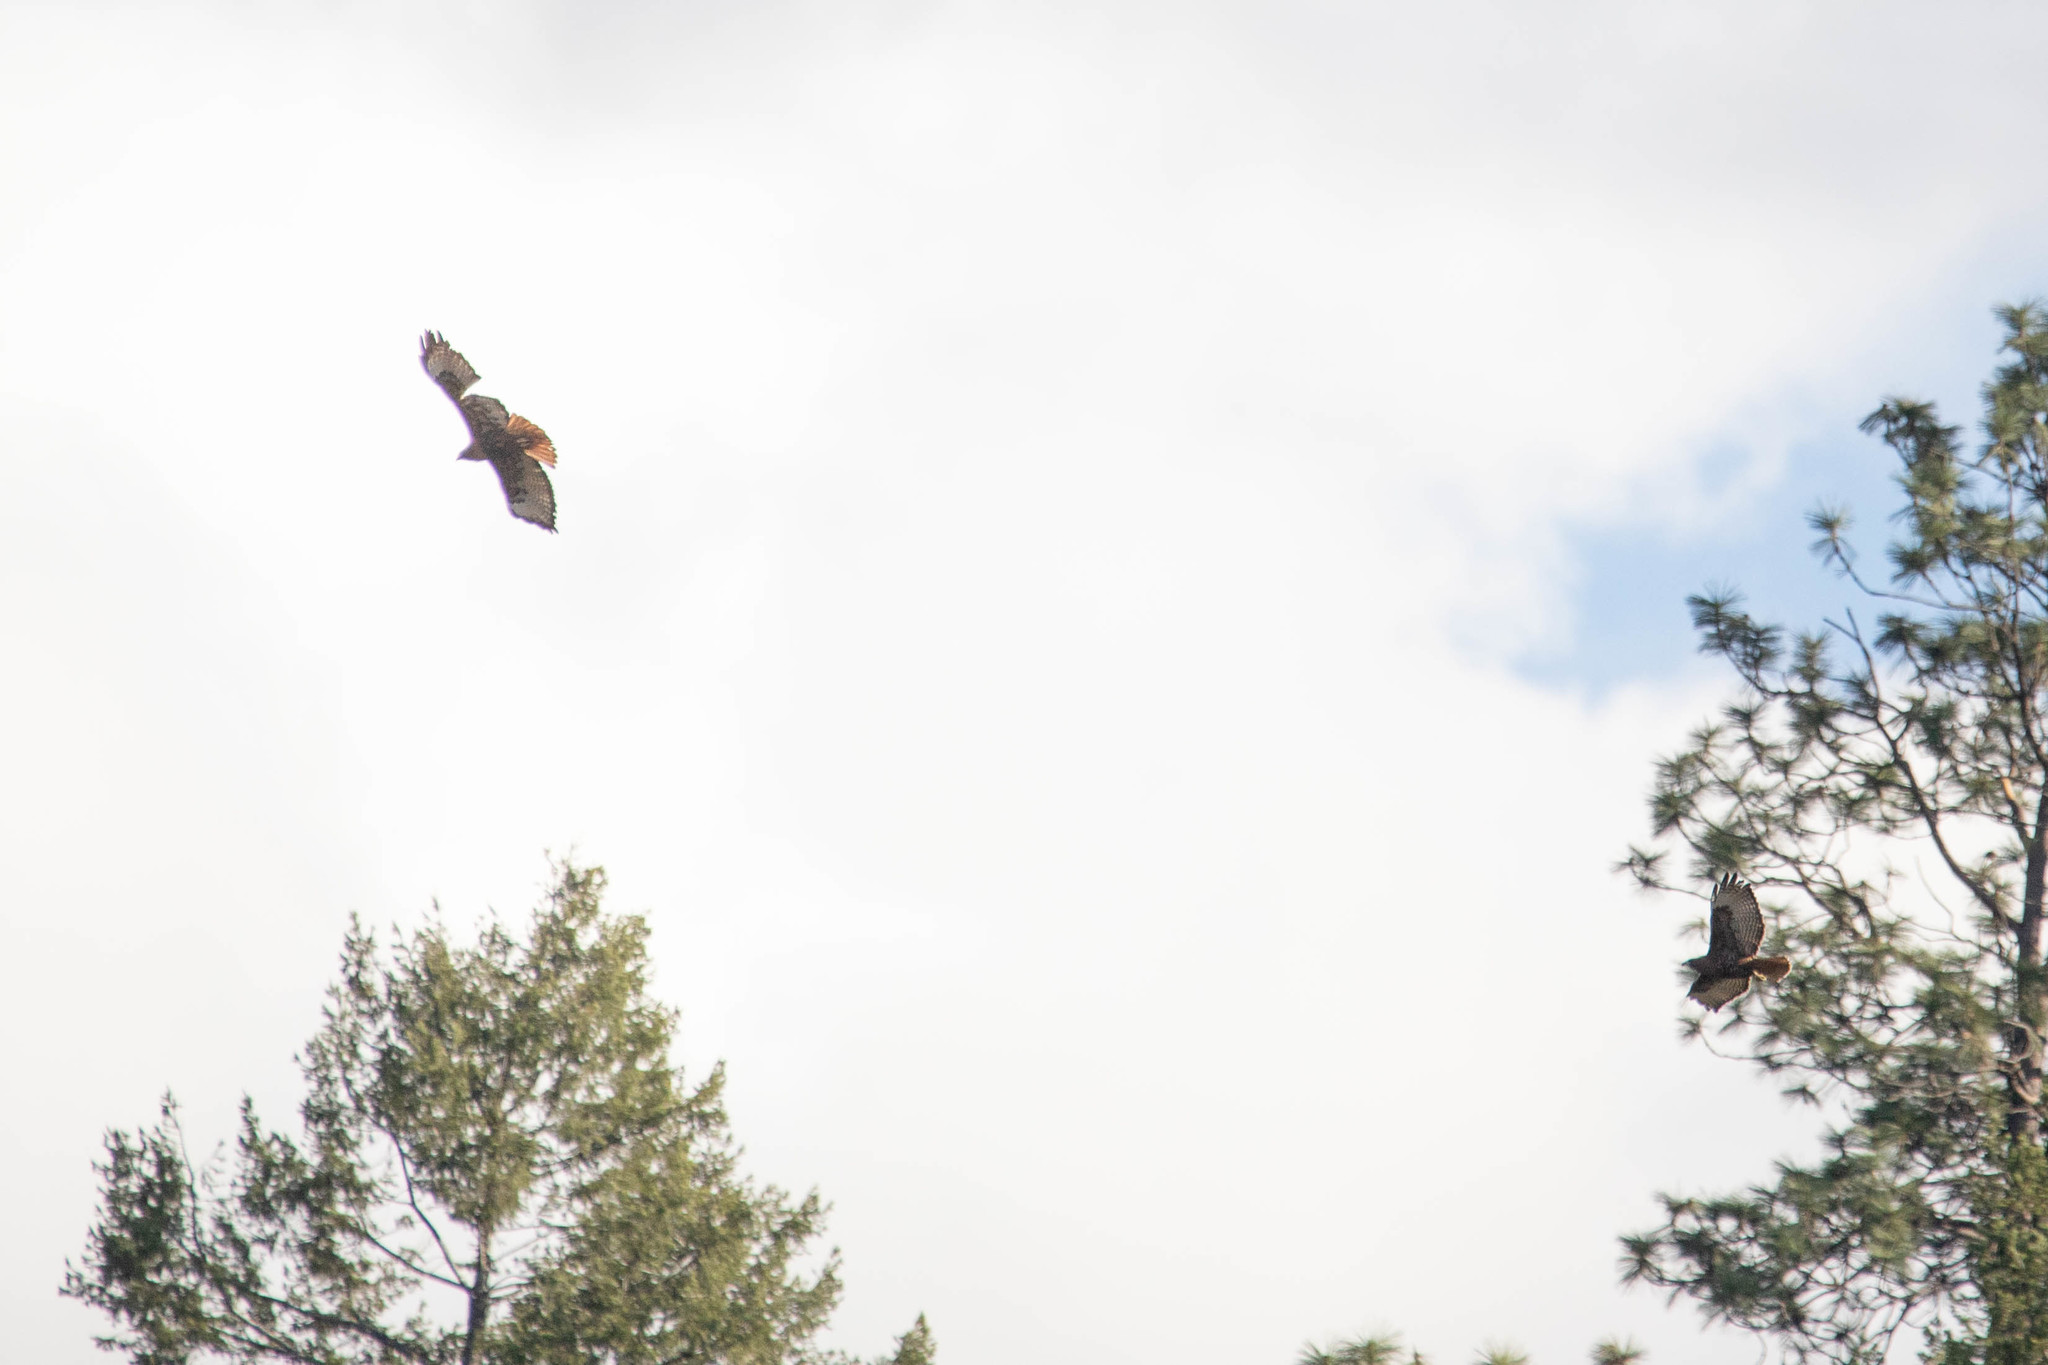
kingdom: Animalia
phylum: Chordata
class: Aves
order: Accipitriformes
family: Accipitridae
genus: Buteo
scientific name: Buteo jamaicensis
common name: Red-tailed hawk
